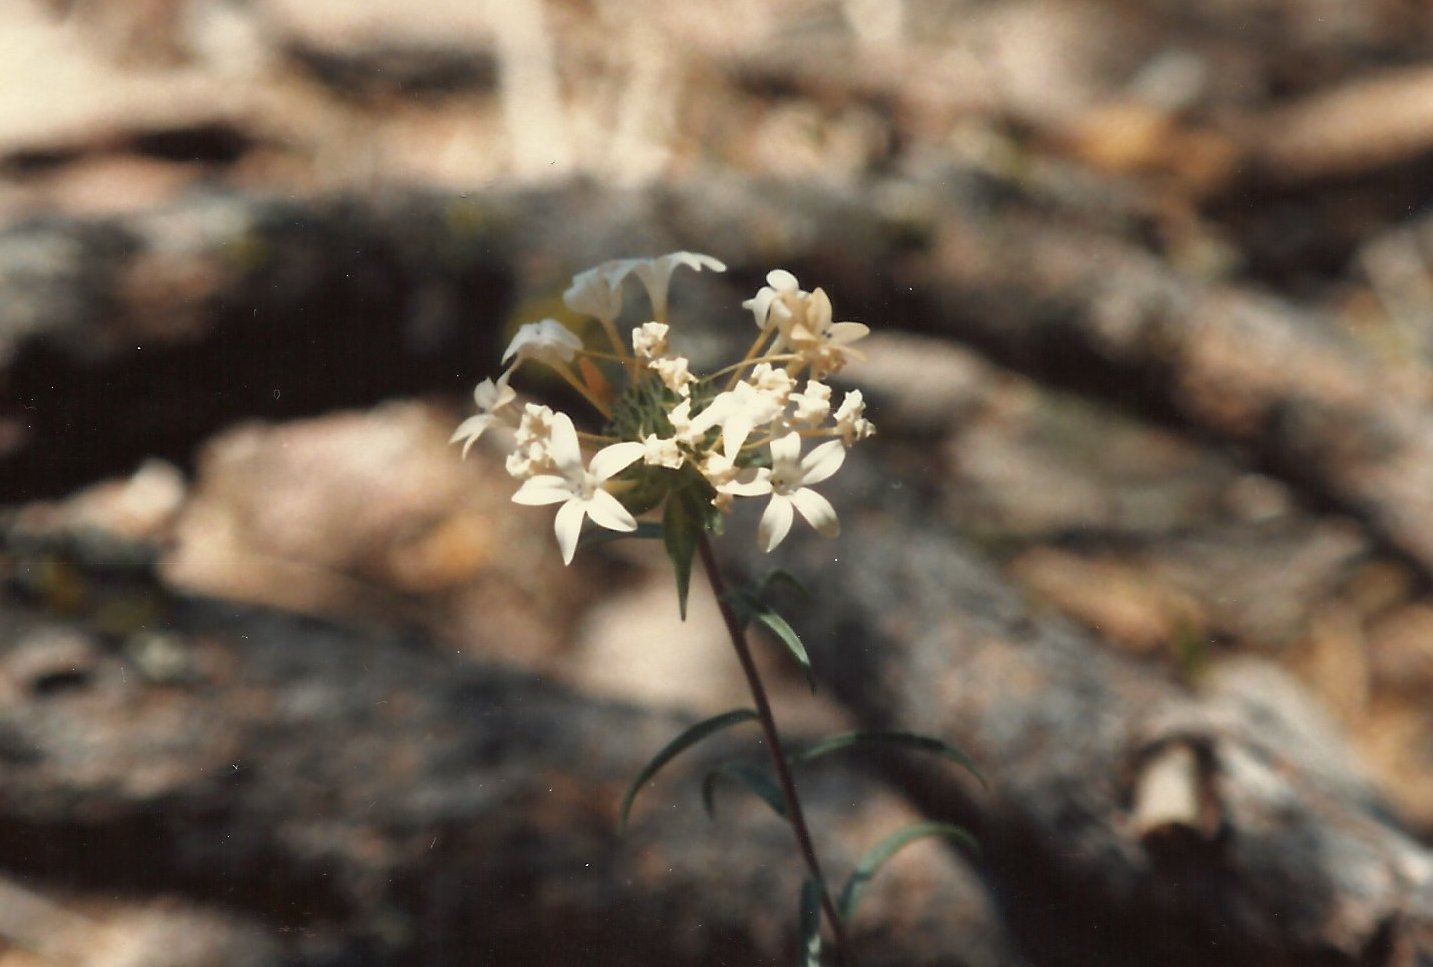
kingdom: Plantae
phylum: Tracheophyta
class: Magnoliopsida
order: Ericales
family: Polemoniaceae
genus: Collomia
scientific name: Collomia grandiflora
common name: California strawflower
